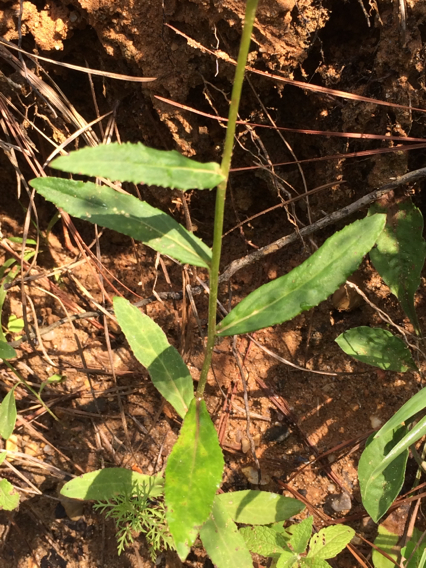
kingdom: Plantae
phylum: Tracheophyta
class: Magnoliopsida
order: Asterales
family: Campanulaceae
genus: Lobelia
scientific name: Lobelia puberula
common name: Purple dewdrop
